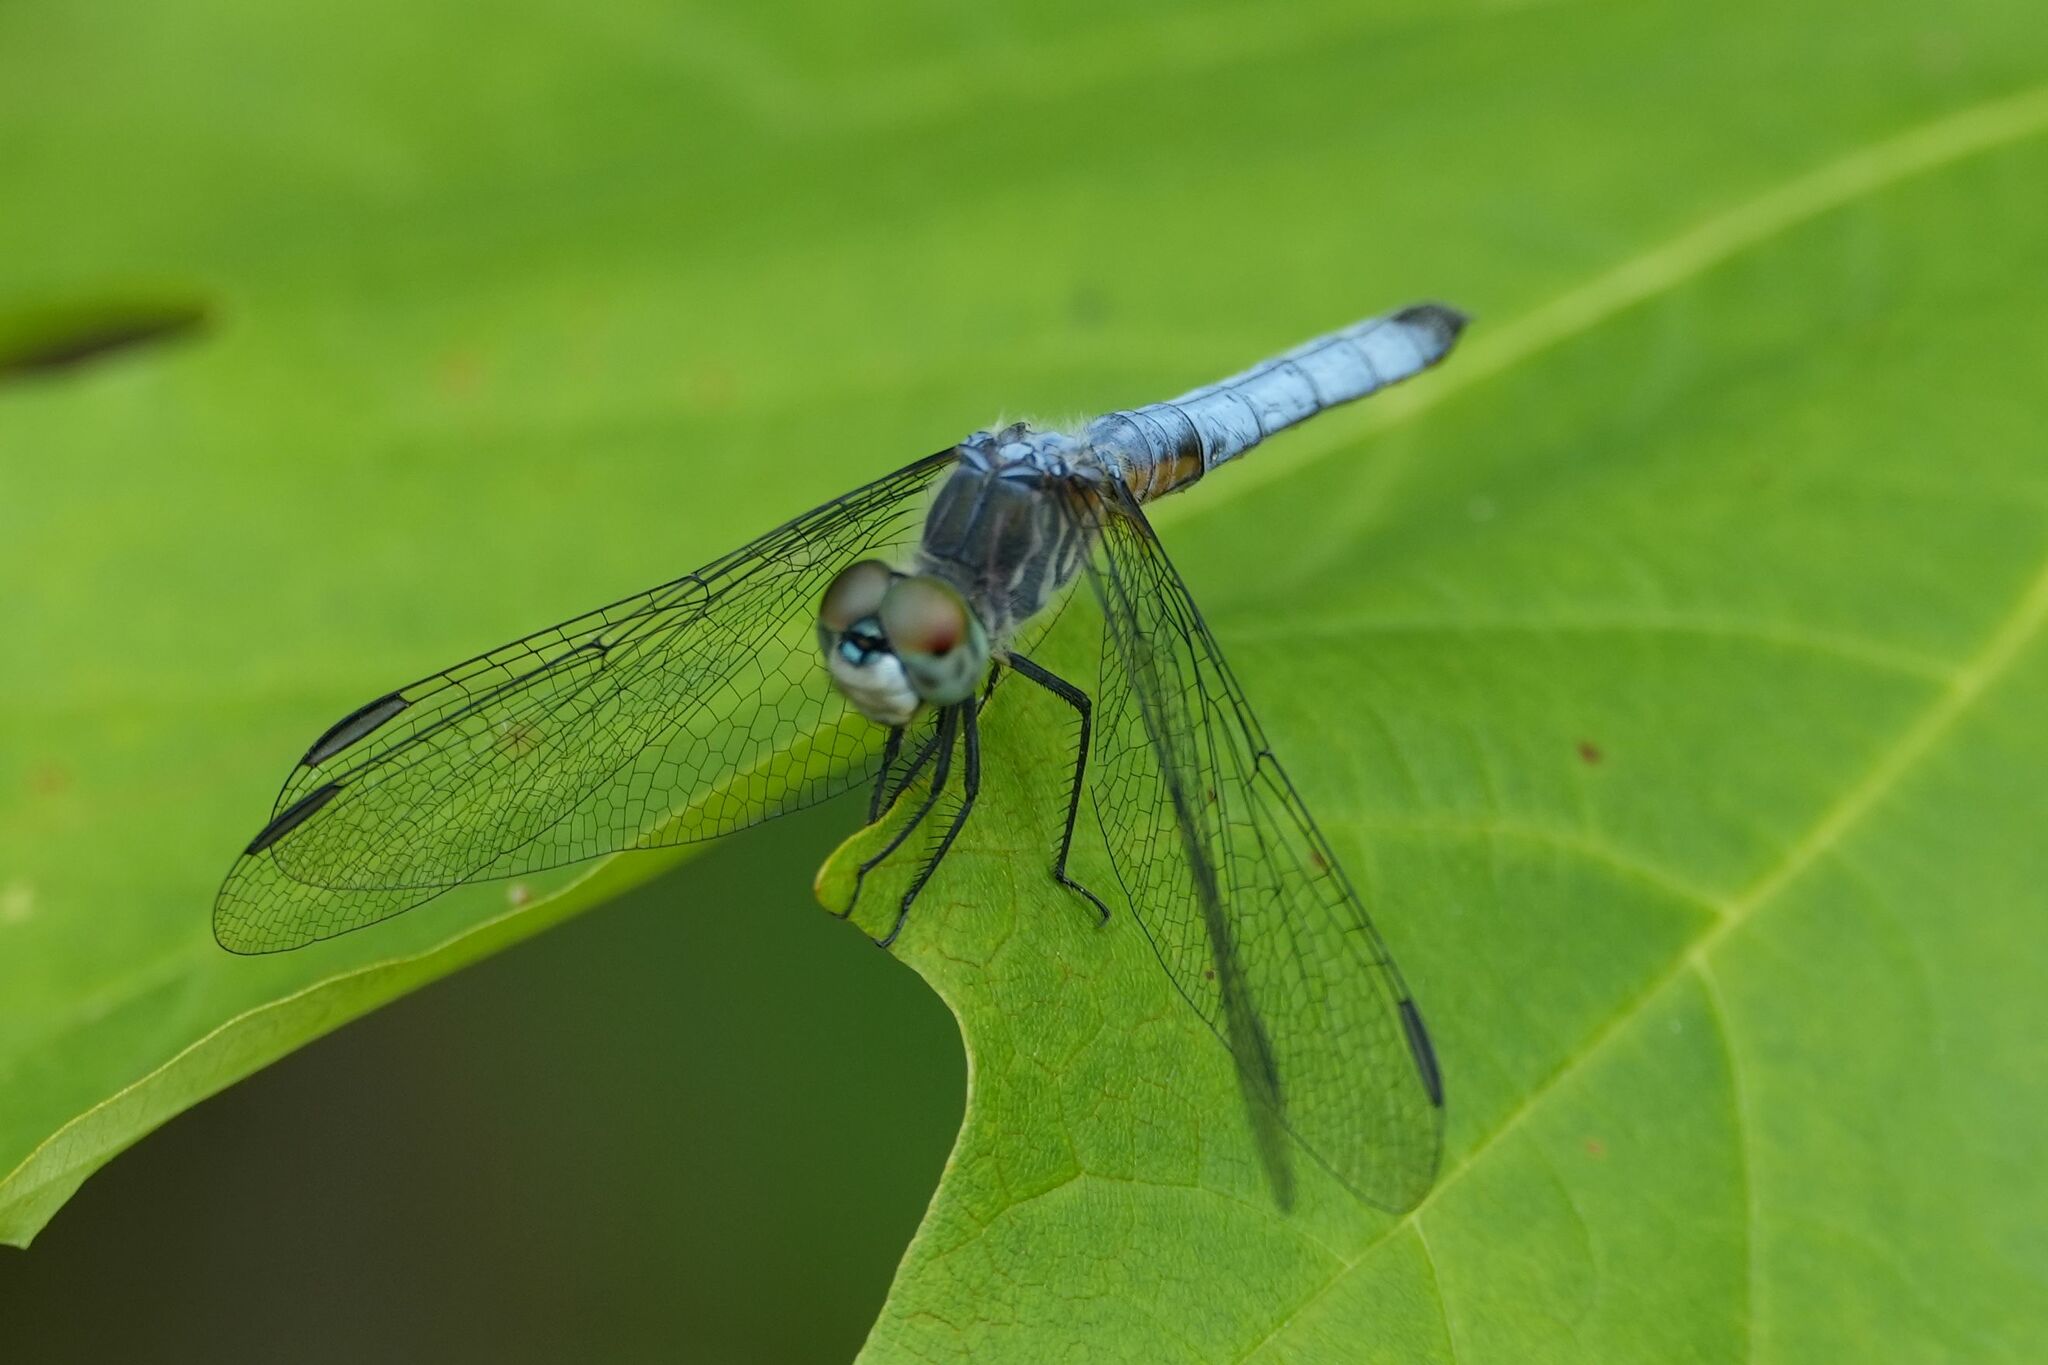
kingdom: Animalia
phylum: Arthropoda
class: Insecta
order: Odonata
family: Libellulidae
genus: Pachydiplax
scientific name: Pachydiplax longipennis
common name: Blue dasher
